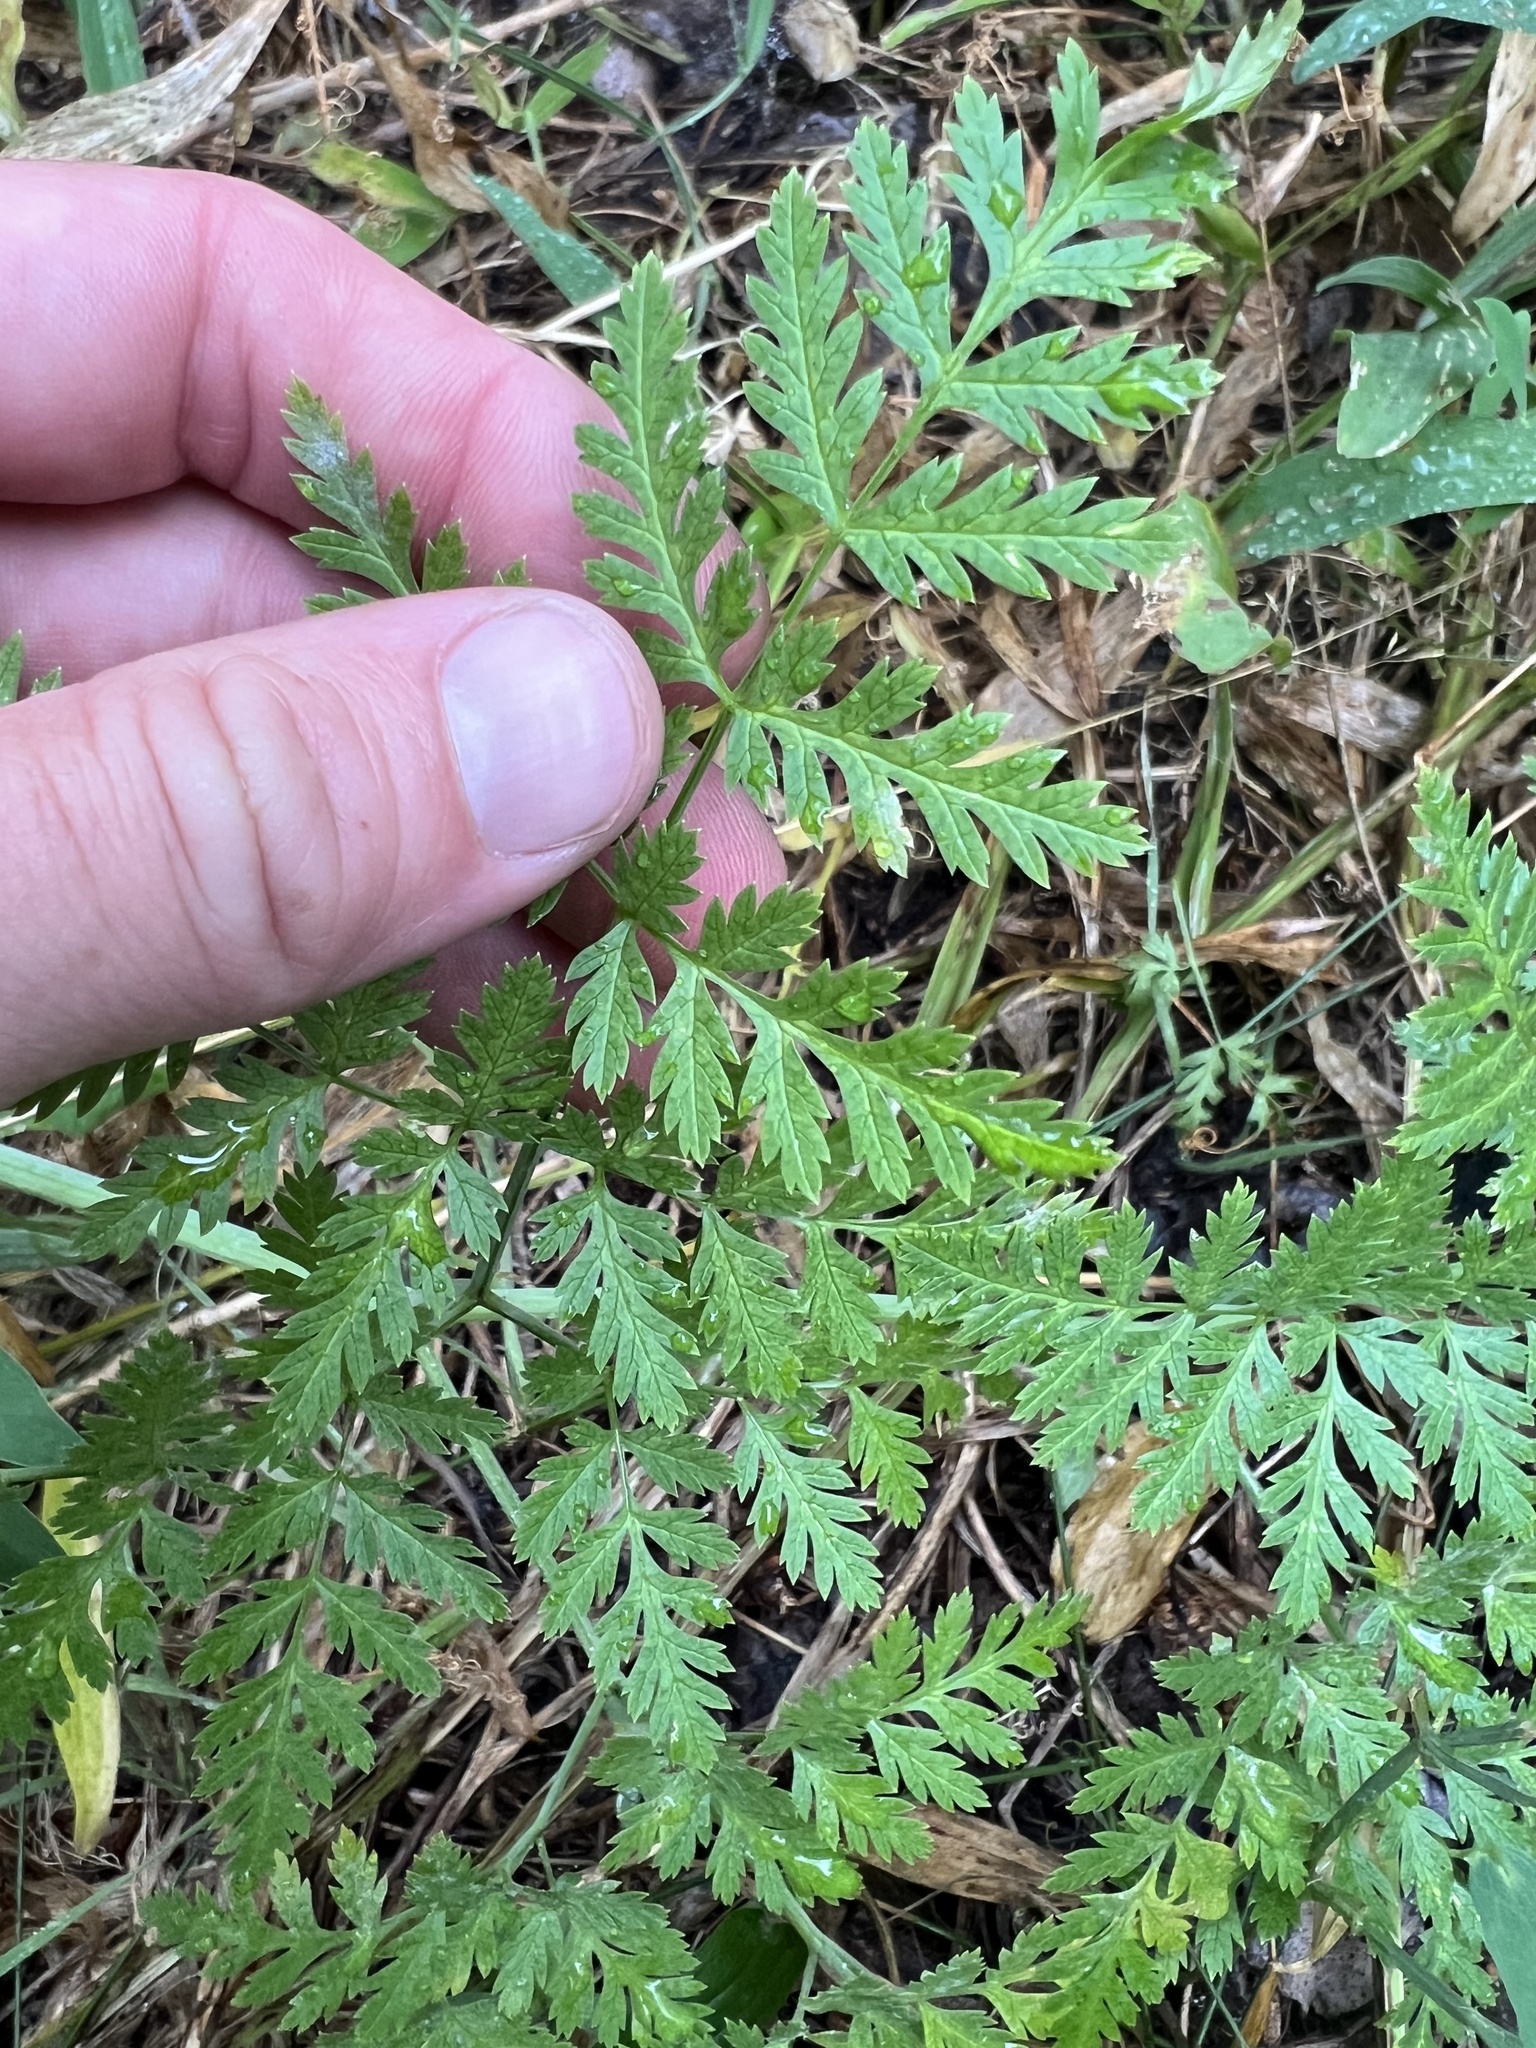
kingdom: Plantae
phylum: Tracheophyta
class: Magnoliopsida
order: Apiales
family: Apiaceae
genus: Conium
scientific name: Conium maculatum
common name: Hemlock
